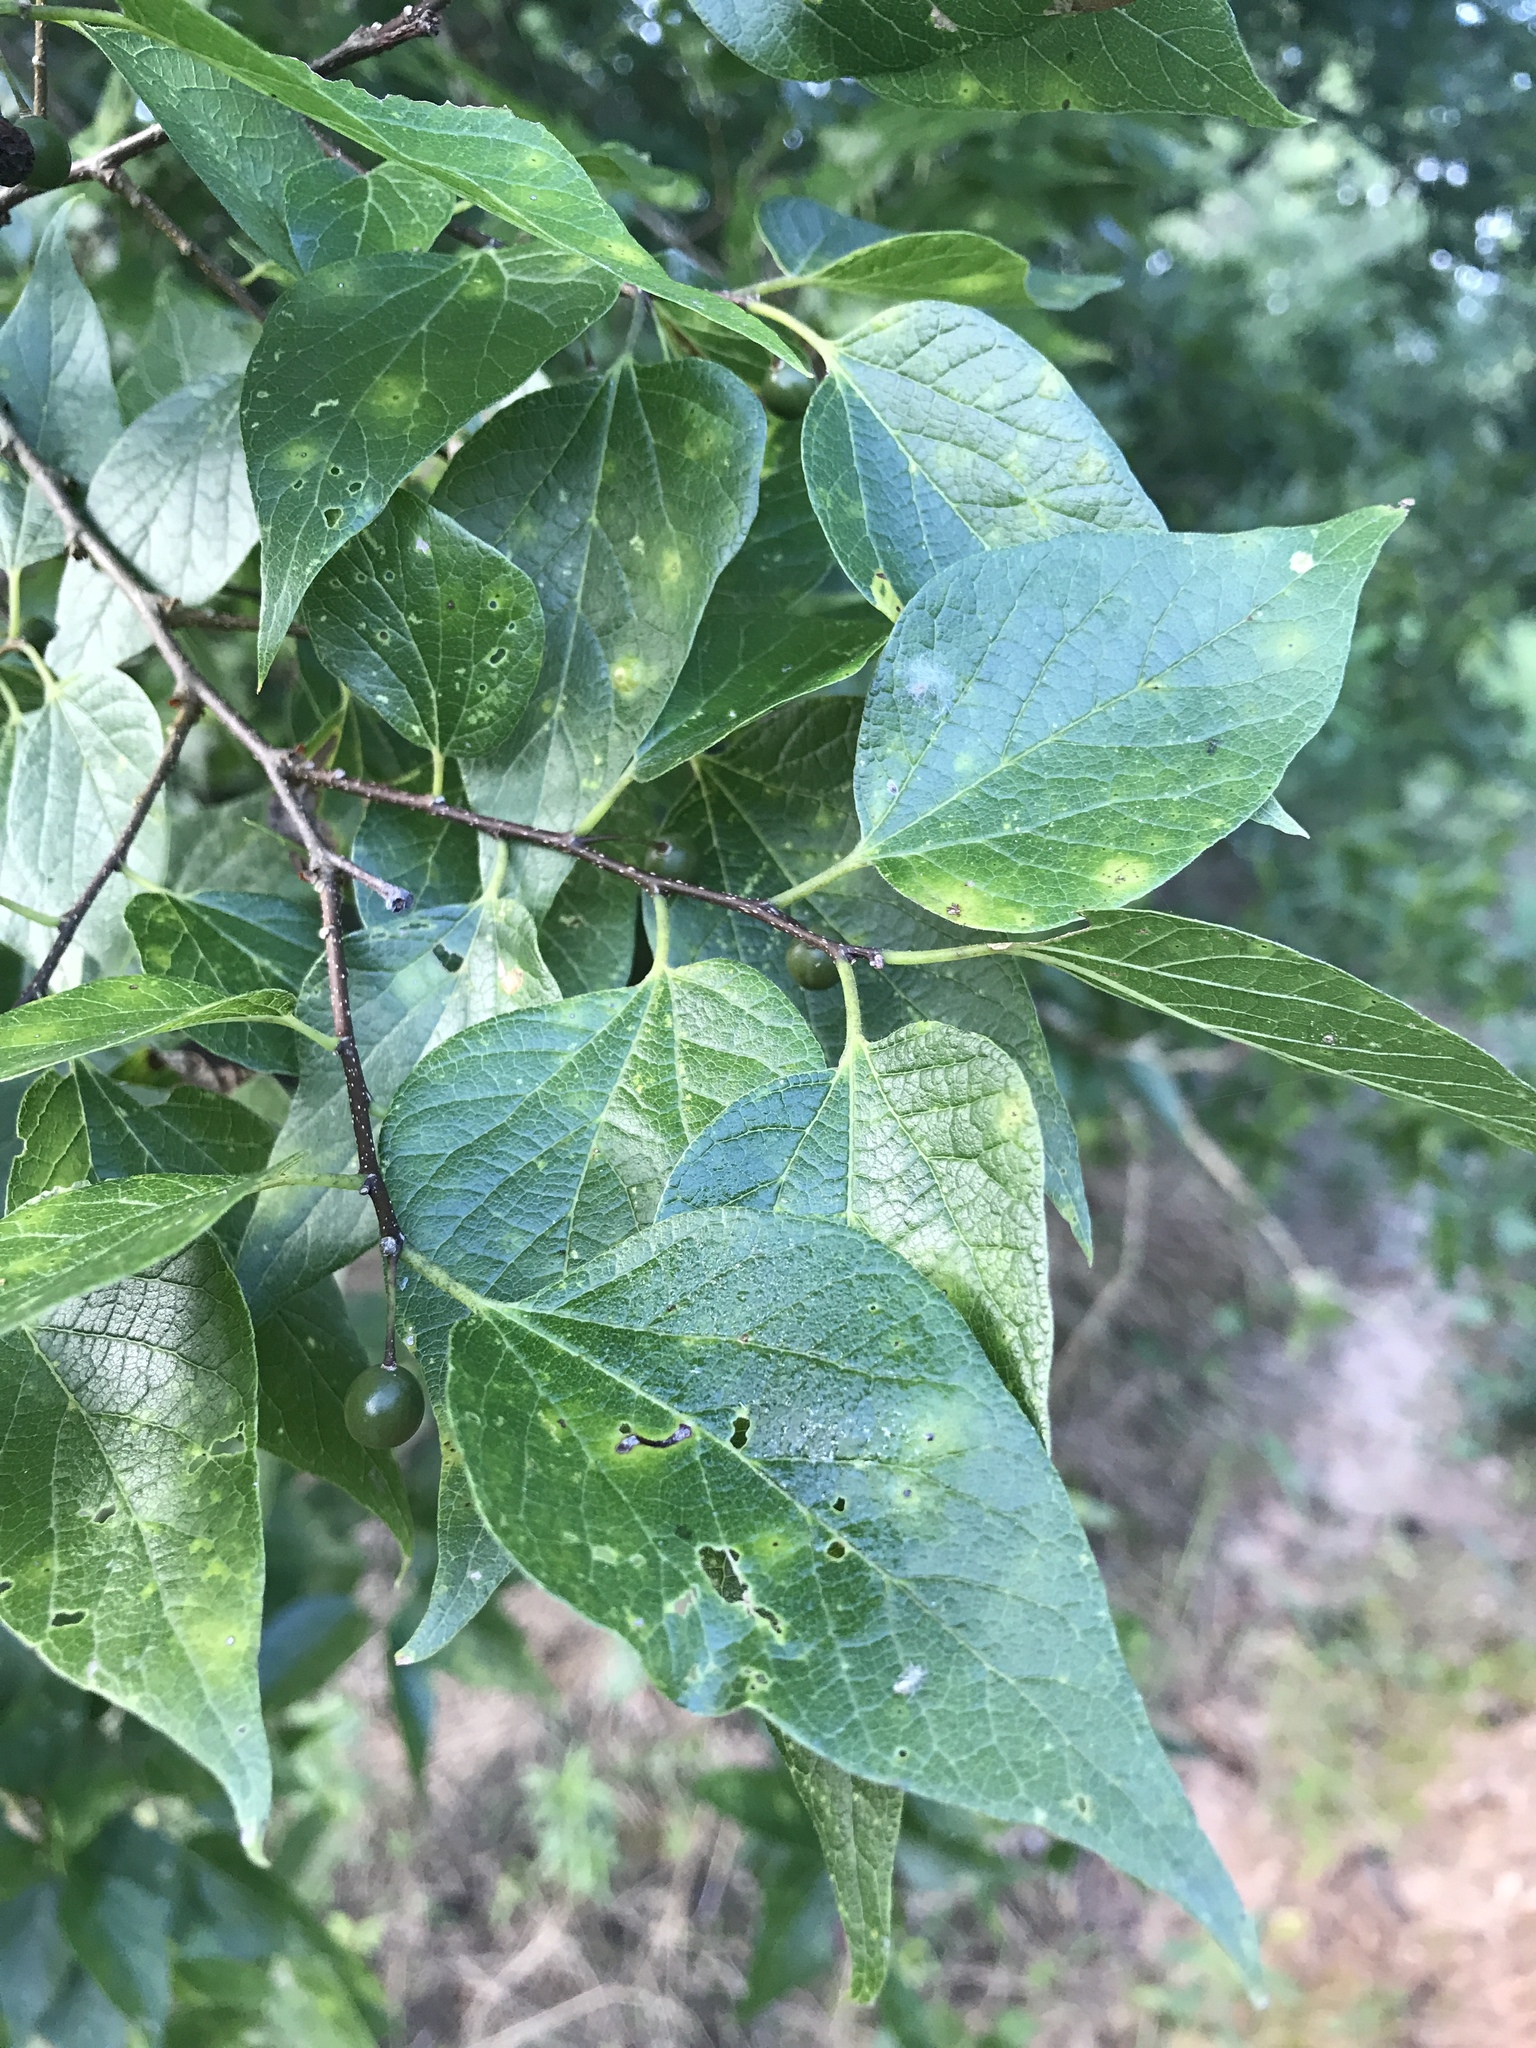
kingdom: Plantae
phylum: Tracheophyta
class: Magnoliopsida
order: Rosales
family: Cannabaceae
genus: Celtis
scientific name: Celtis laevigata
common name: Sugarberry
